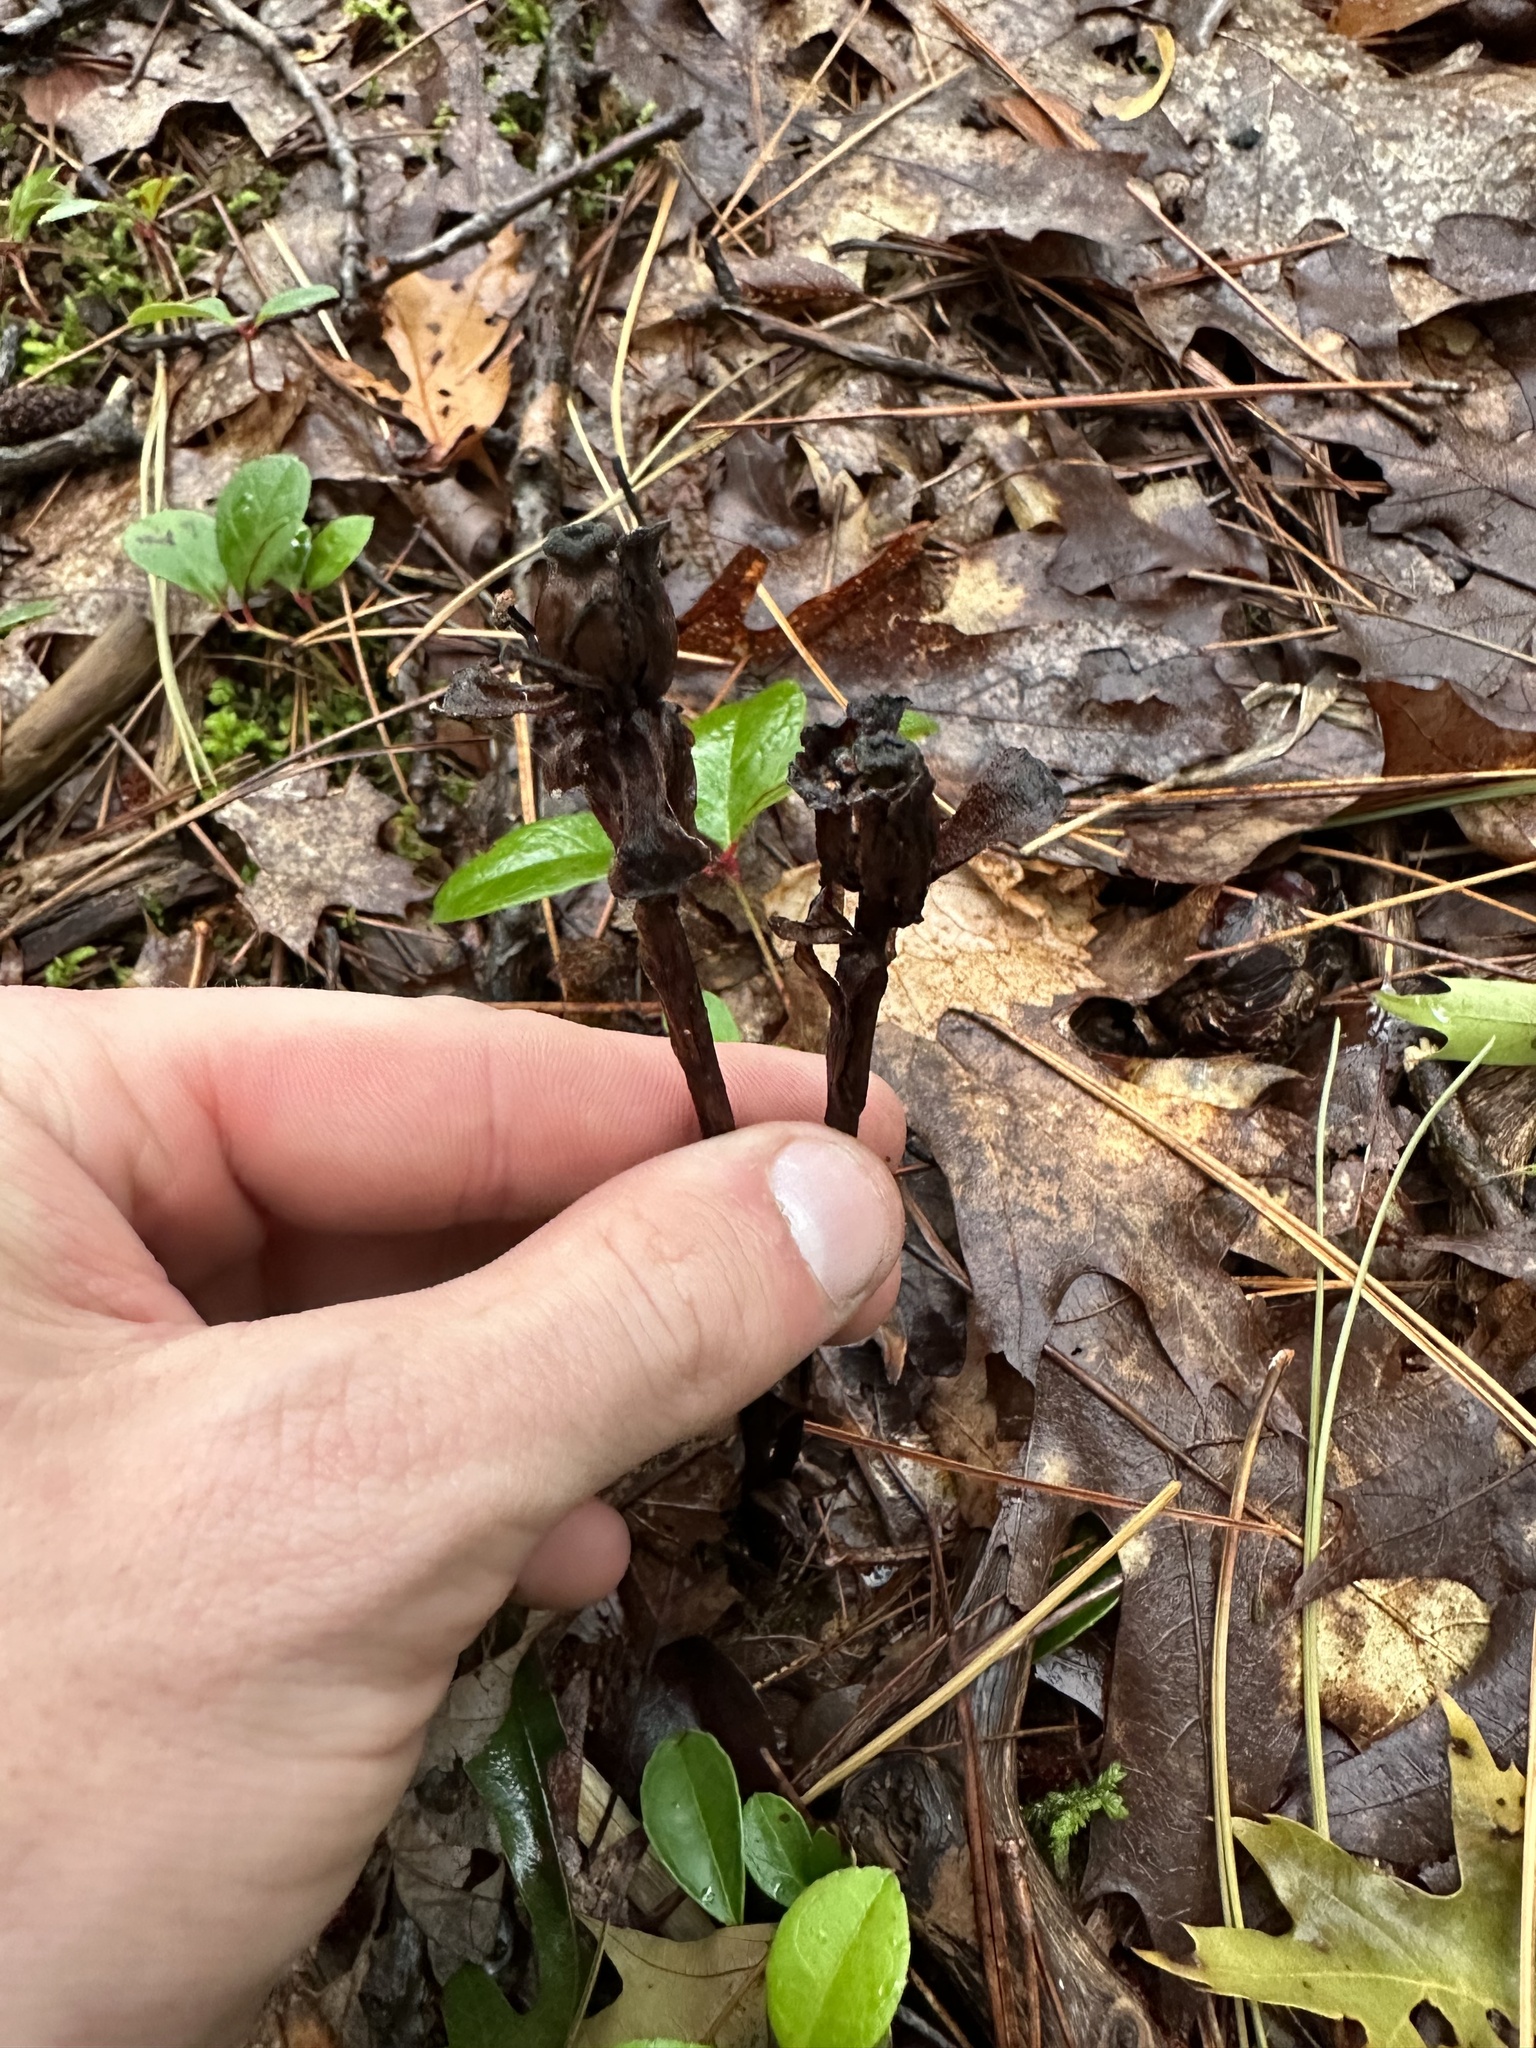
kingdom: Plantae
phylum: Tracheophyta
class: Magnoliopsida
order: Ericales
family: Ericaceae
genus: Monotropa
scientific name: Monotropa uniflora
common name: Convulsion root
